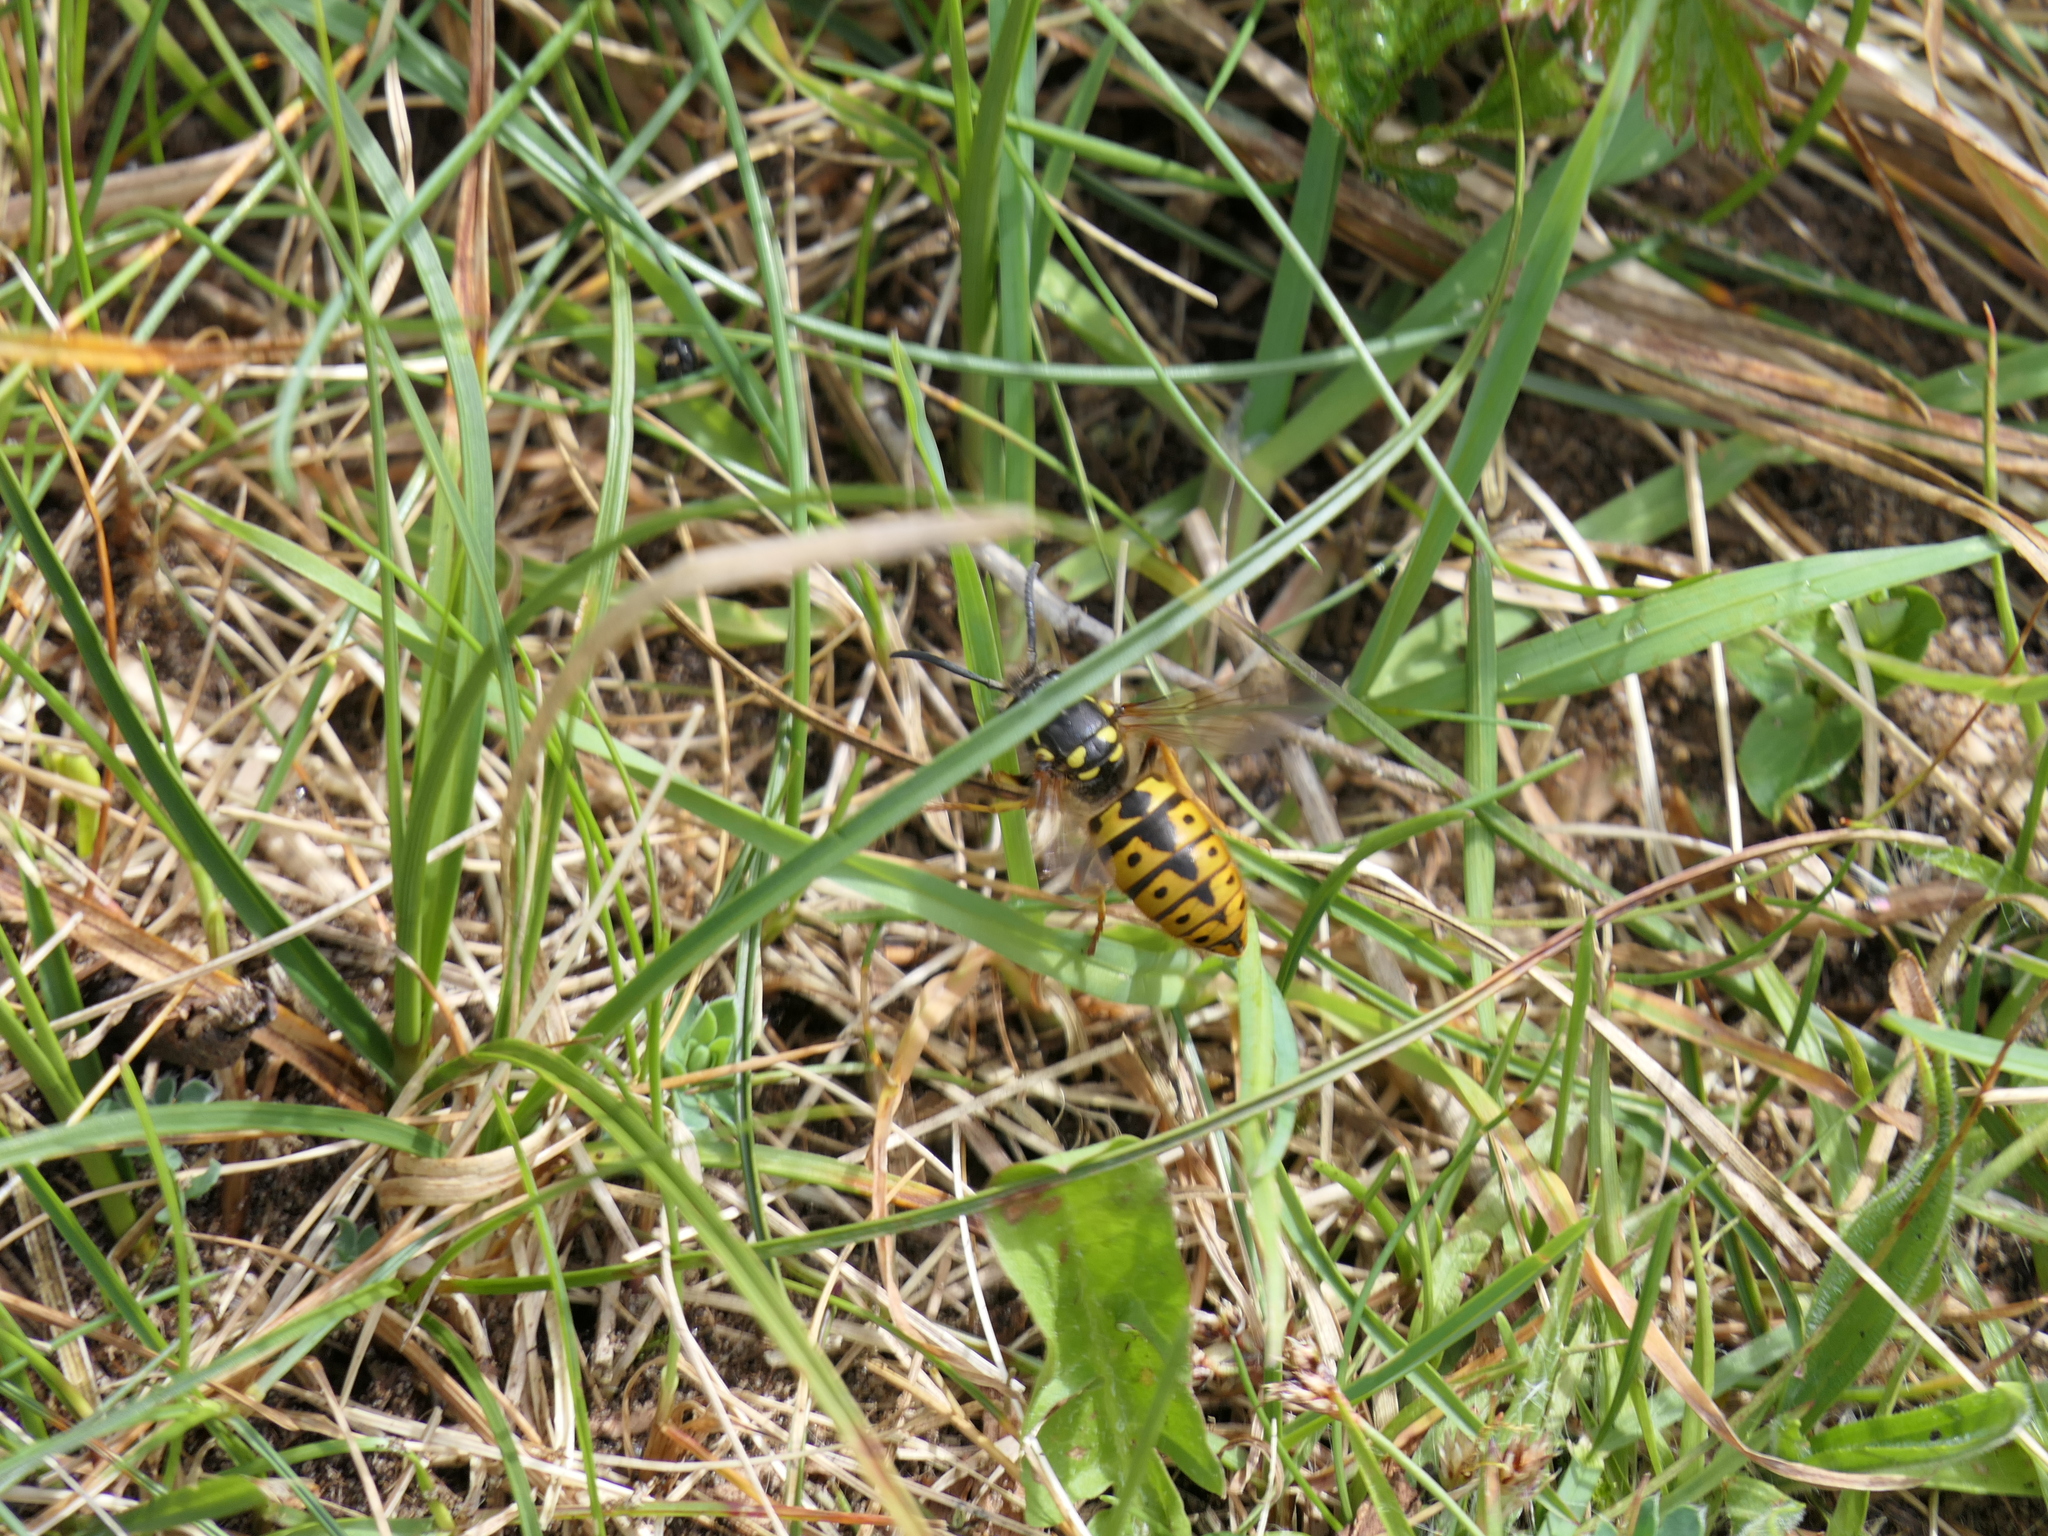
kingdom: Animalia
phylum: Arthropoda
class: Insecta
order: Hymenoptera
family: Vespidae
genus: Vespula
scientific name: Vespula germanica
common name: German wasp
